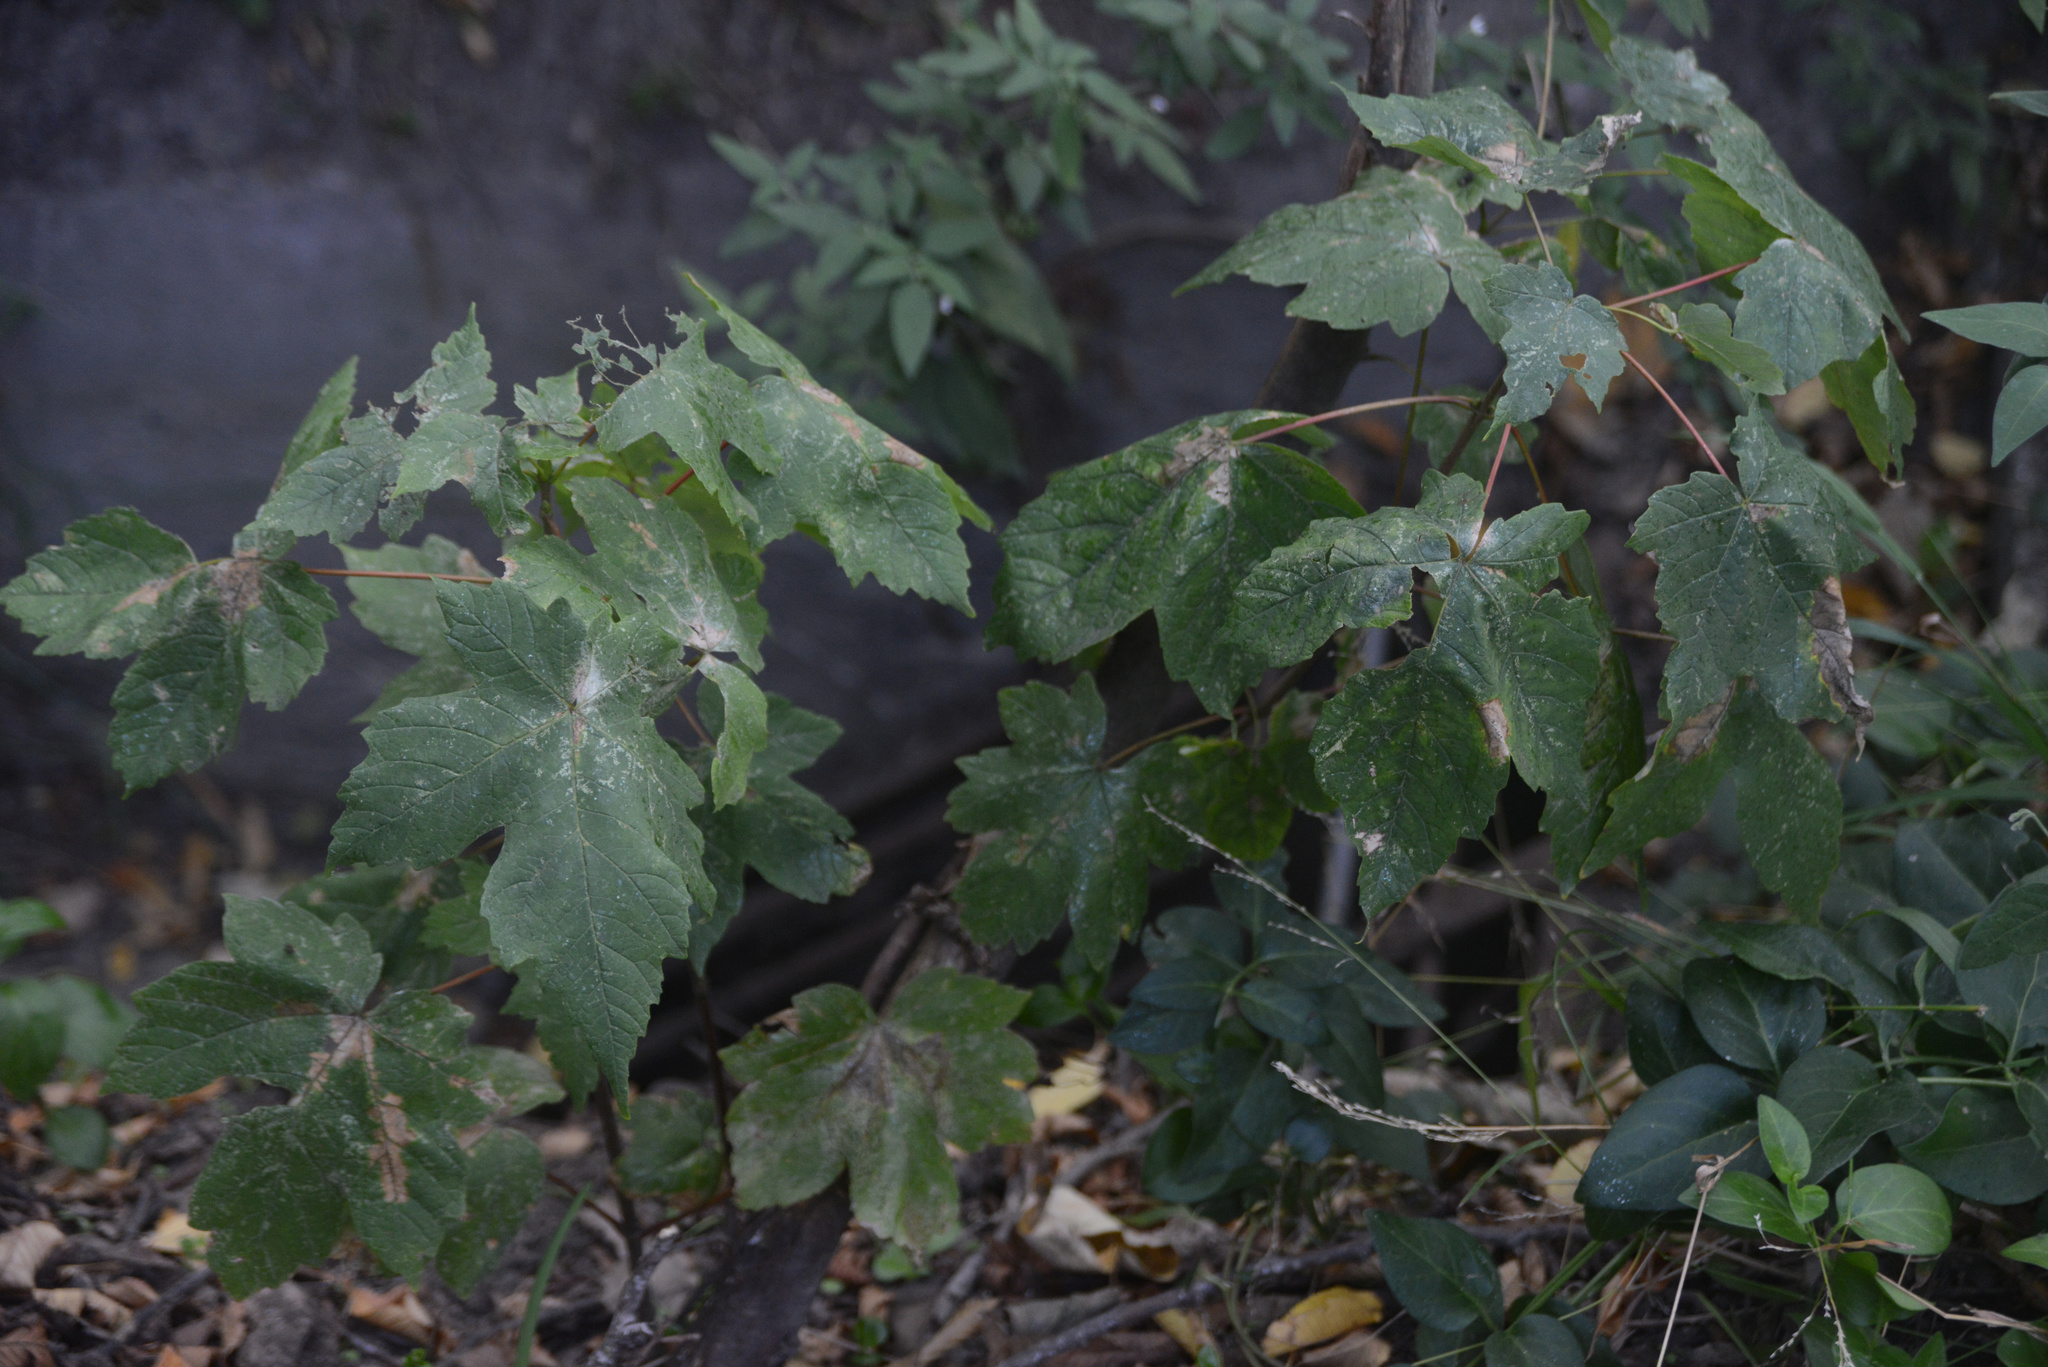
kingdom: Plantae
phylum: Tracheophyta
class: Magnoliopsida
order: Sapindales
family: Sapindaceae
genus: Acer
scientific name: Acer pseudoplatanus
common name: Sycamore
